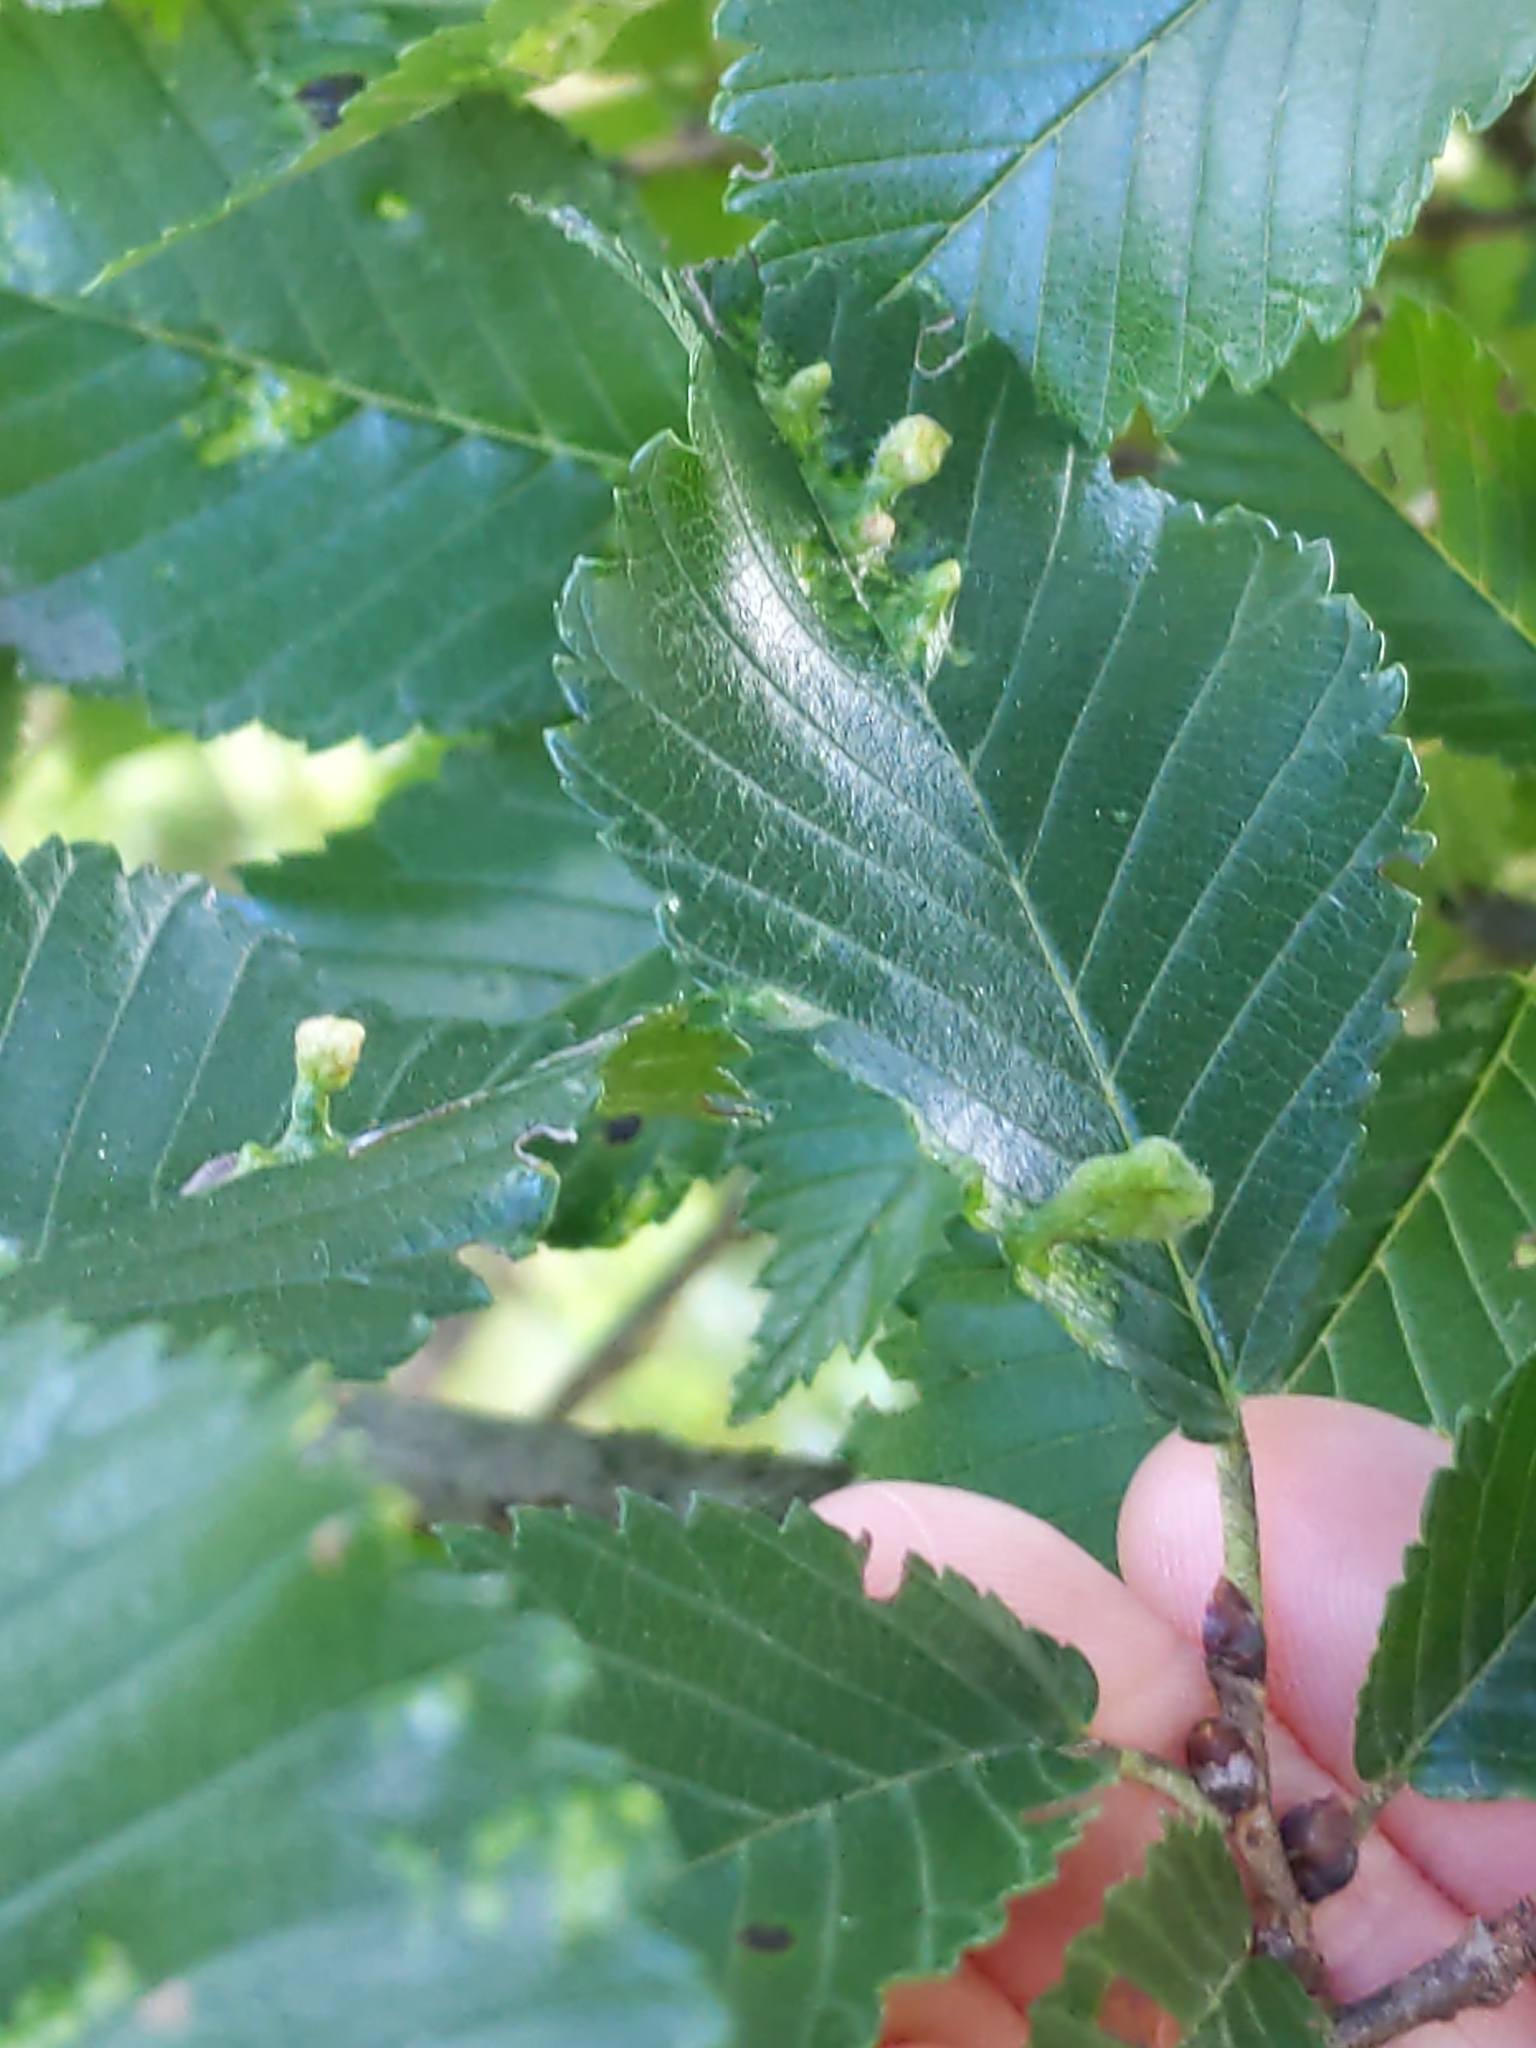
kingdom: Animalia
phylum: Arthropoda
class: Insecta
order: Hemiptera
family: Aphididae
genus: Tetraneura
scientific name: Tetraneura nigriabdominalis
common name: Aphid
